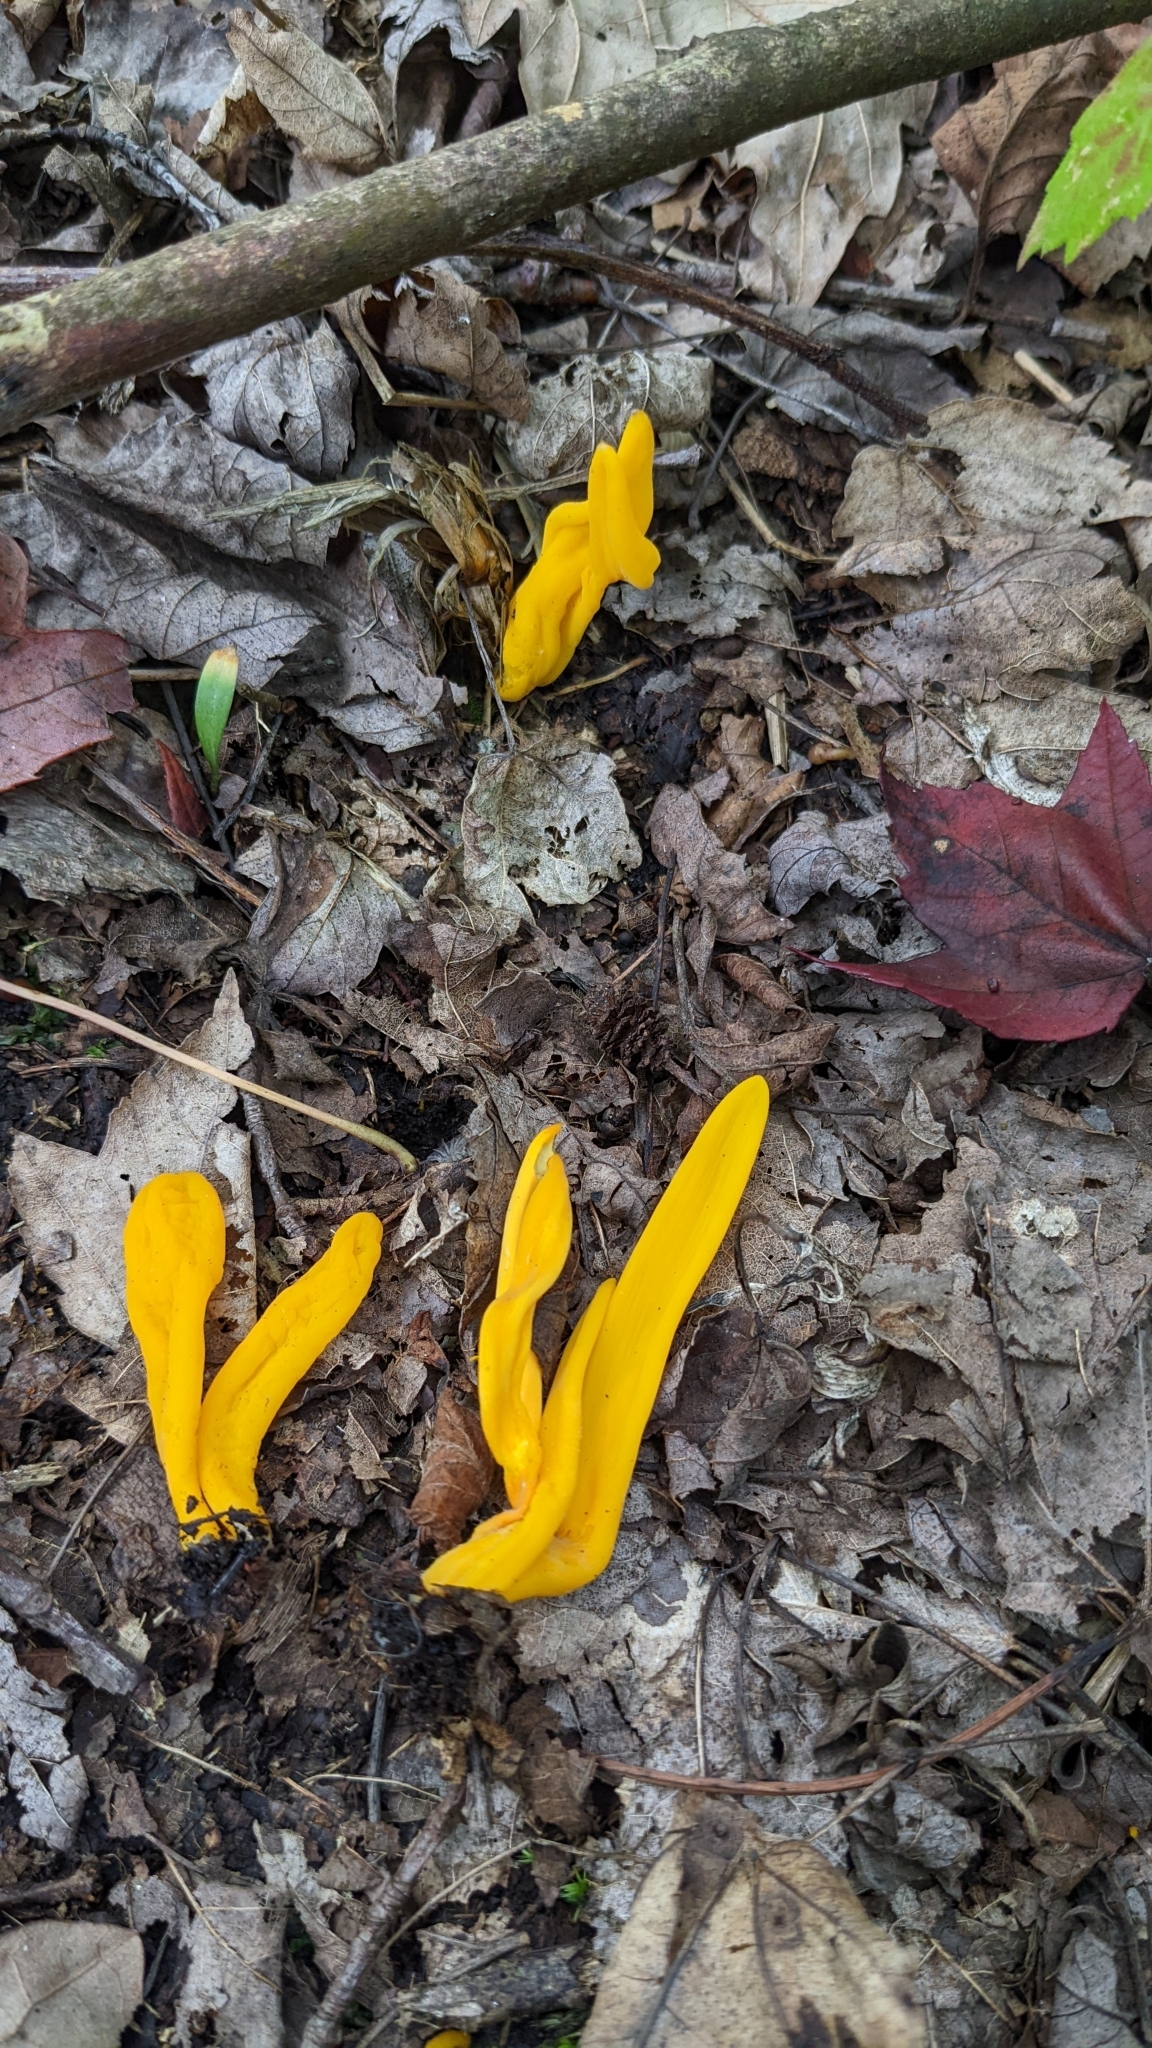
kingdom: Fungi
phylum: Basidiomycota
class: Agaricomycetes
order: Agaricales
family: Clavariaceae
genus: Clavulinopsis
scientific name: Clavulinopsis fusiformis
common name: Golden spindles
